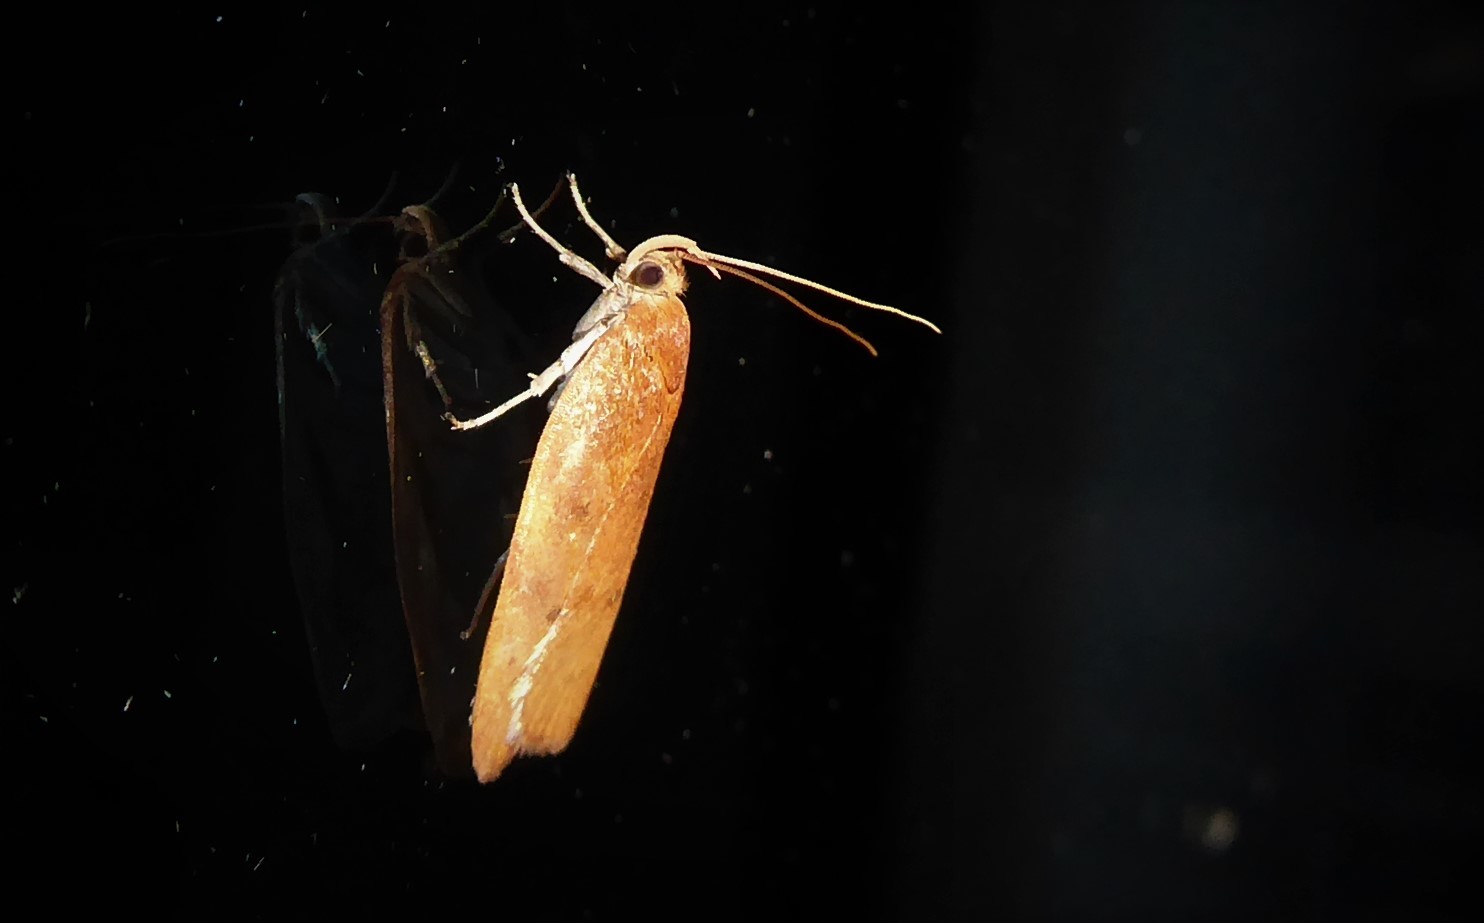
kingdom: Animalia
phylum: Arthropoda
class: Insecta
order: Lepidoptera
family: Depressariidae
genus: Phaeosaces
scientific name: Phaeosaces coarctatella
